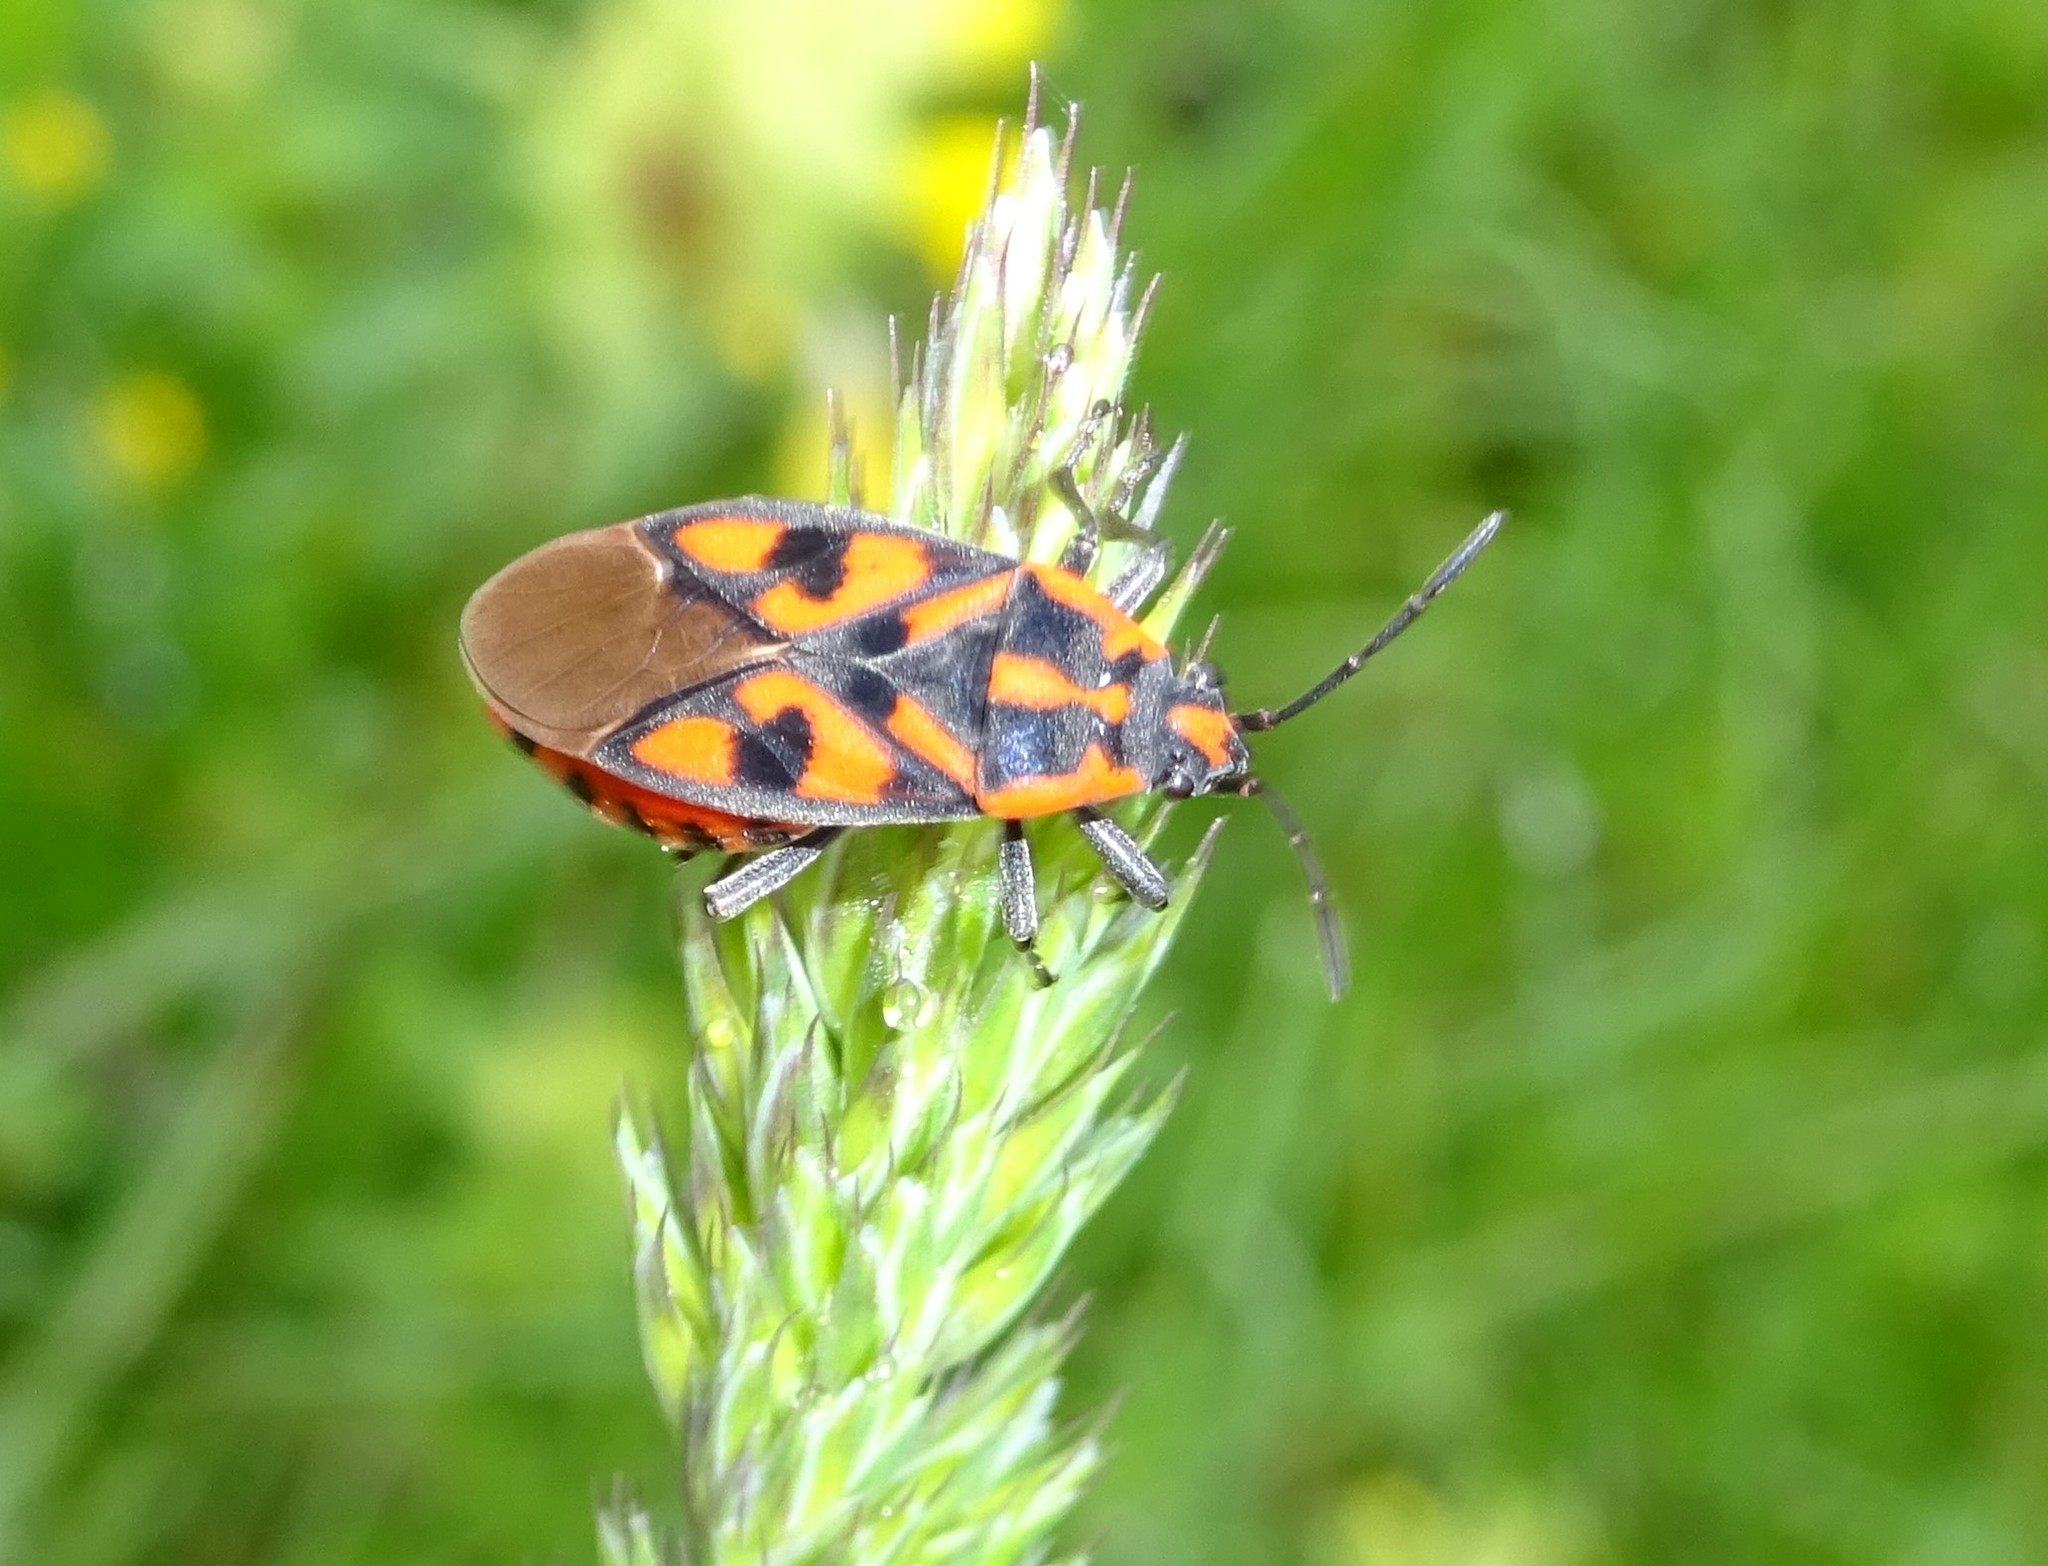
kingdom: Animalia
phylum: Arthropoda
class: Insecta
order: Hemiptera
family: Lygaeidae
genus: Spilostethus
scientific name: Spilostethus saxatilis
